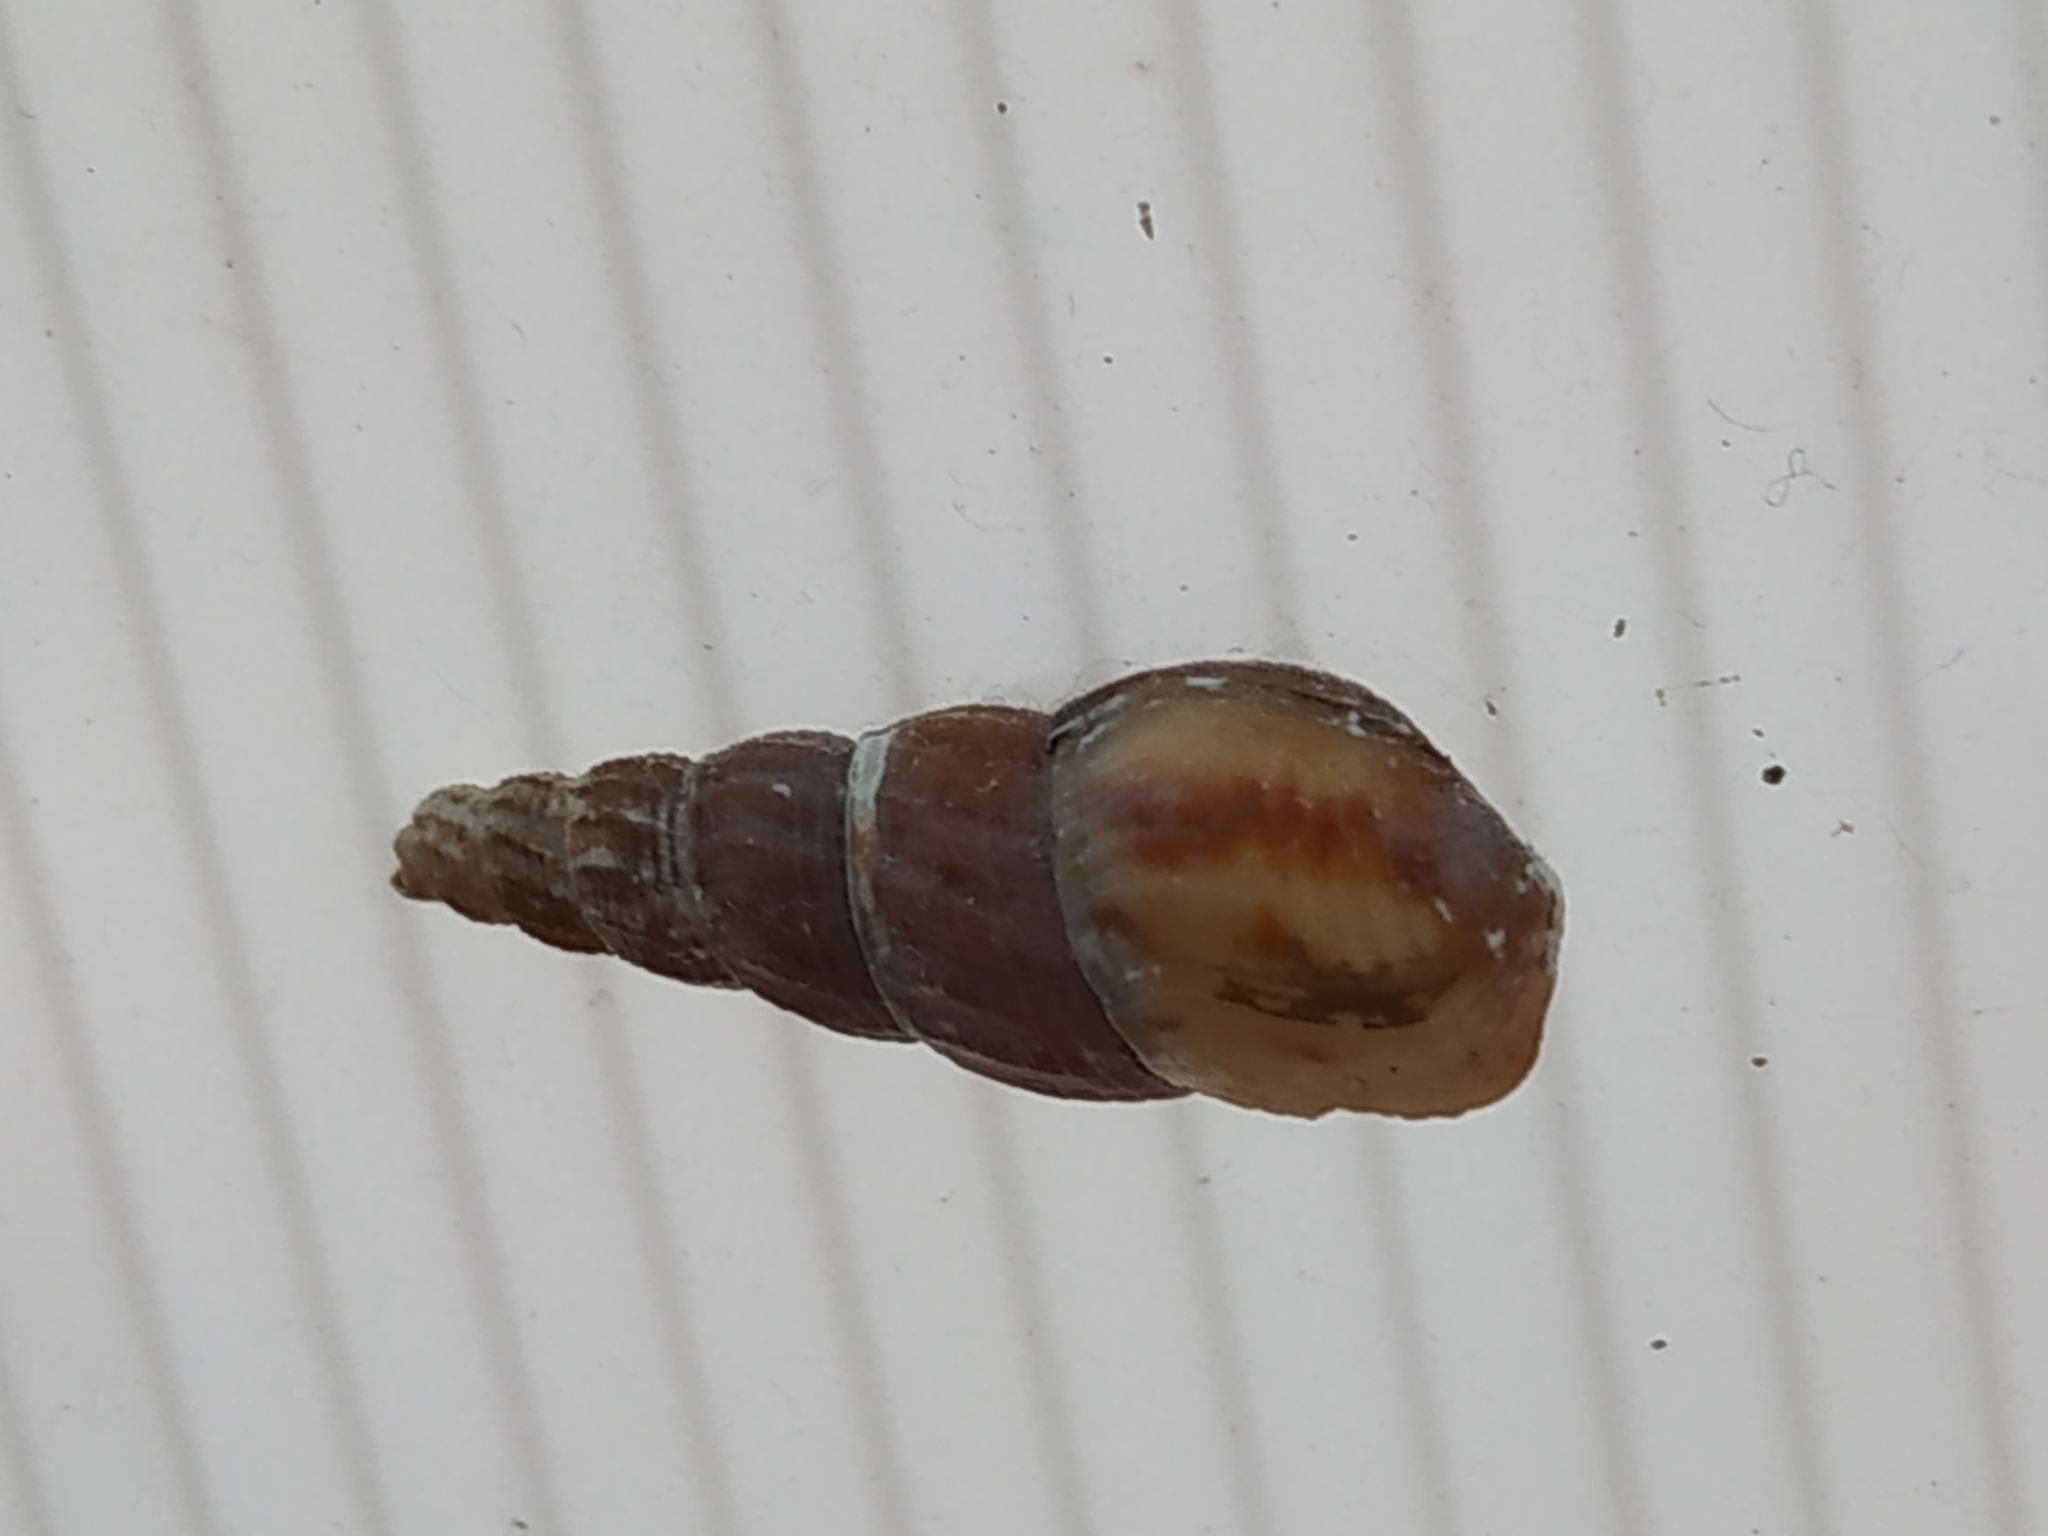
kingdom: Animalia
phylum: Mollusca
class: Gastropoda
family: Thiaridae
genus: Melanoides
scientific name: Melanoides tuberculata
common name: Red-rim melania
